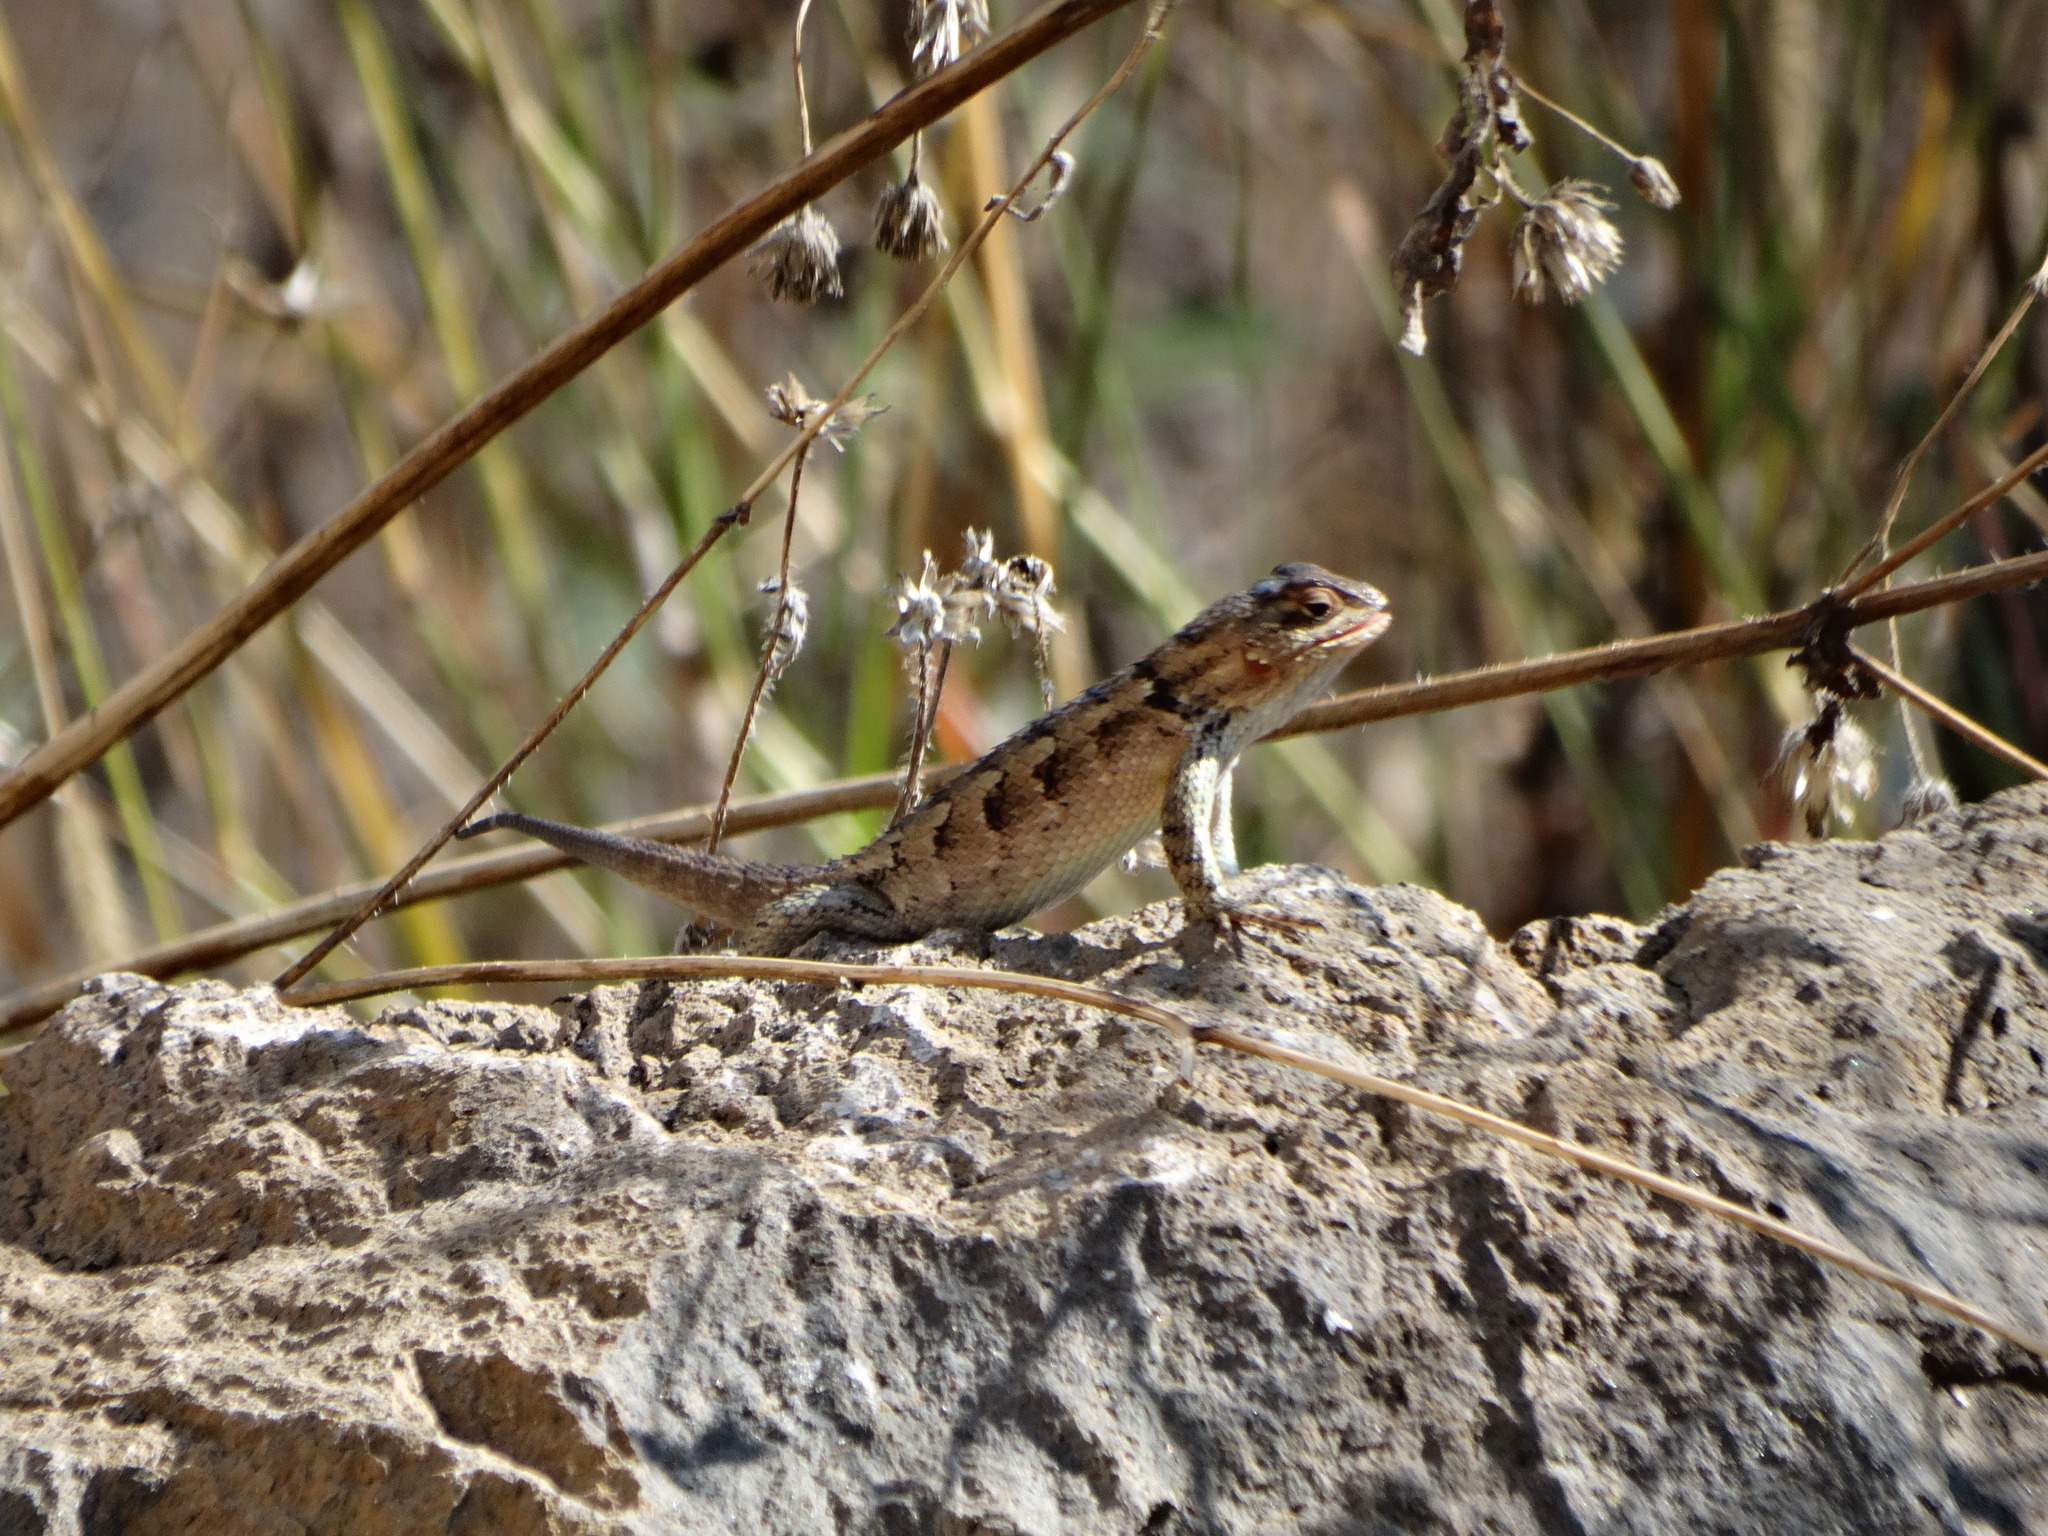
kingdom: Animalia
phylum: Chordata
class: Squamata
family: Phrynosomatidae
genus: Sceloporus
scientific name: Sceloporus spinosus
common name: Blue-spotted spiny lizard [caeruleopunctatus]
